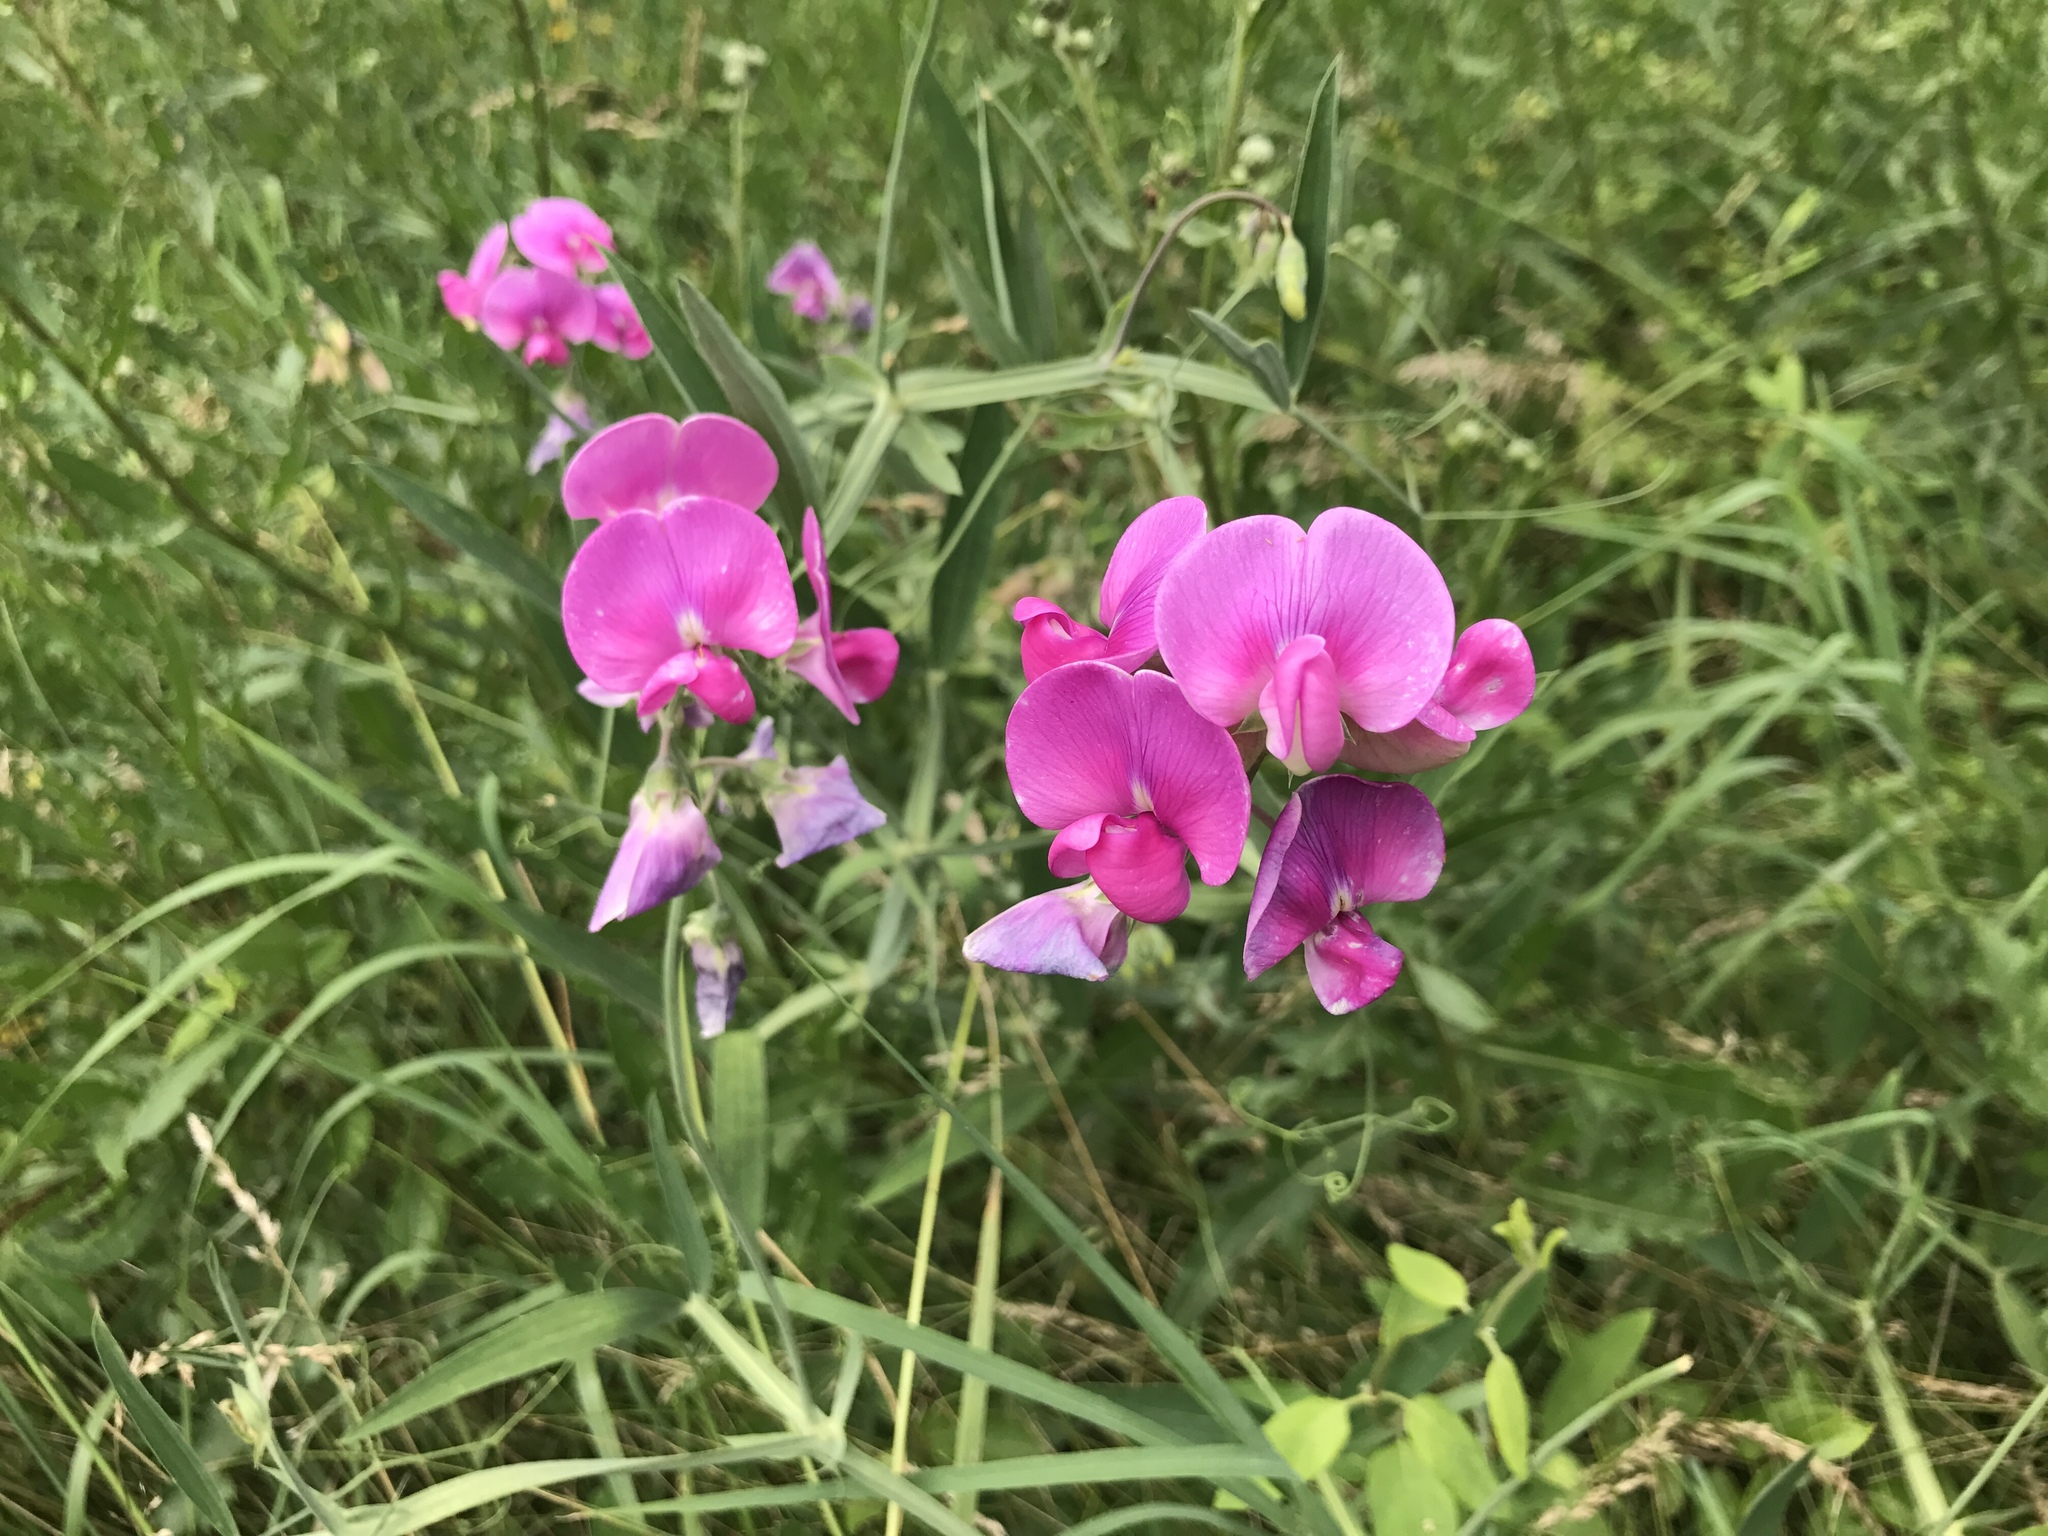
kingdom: Plantae
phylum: Tracheophyta
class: Magnoliopsida
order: Fabales
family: Fabaceae
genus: Lathyrus
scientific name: Lathyrus latifolius
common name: Perennial pea
